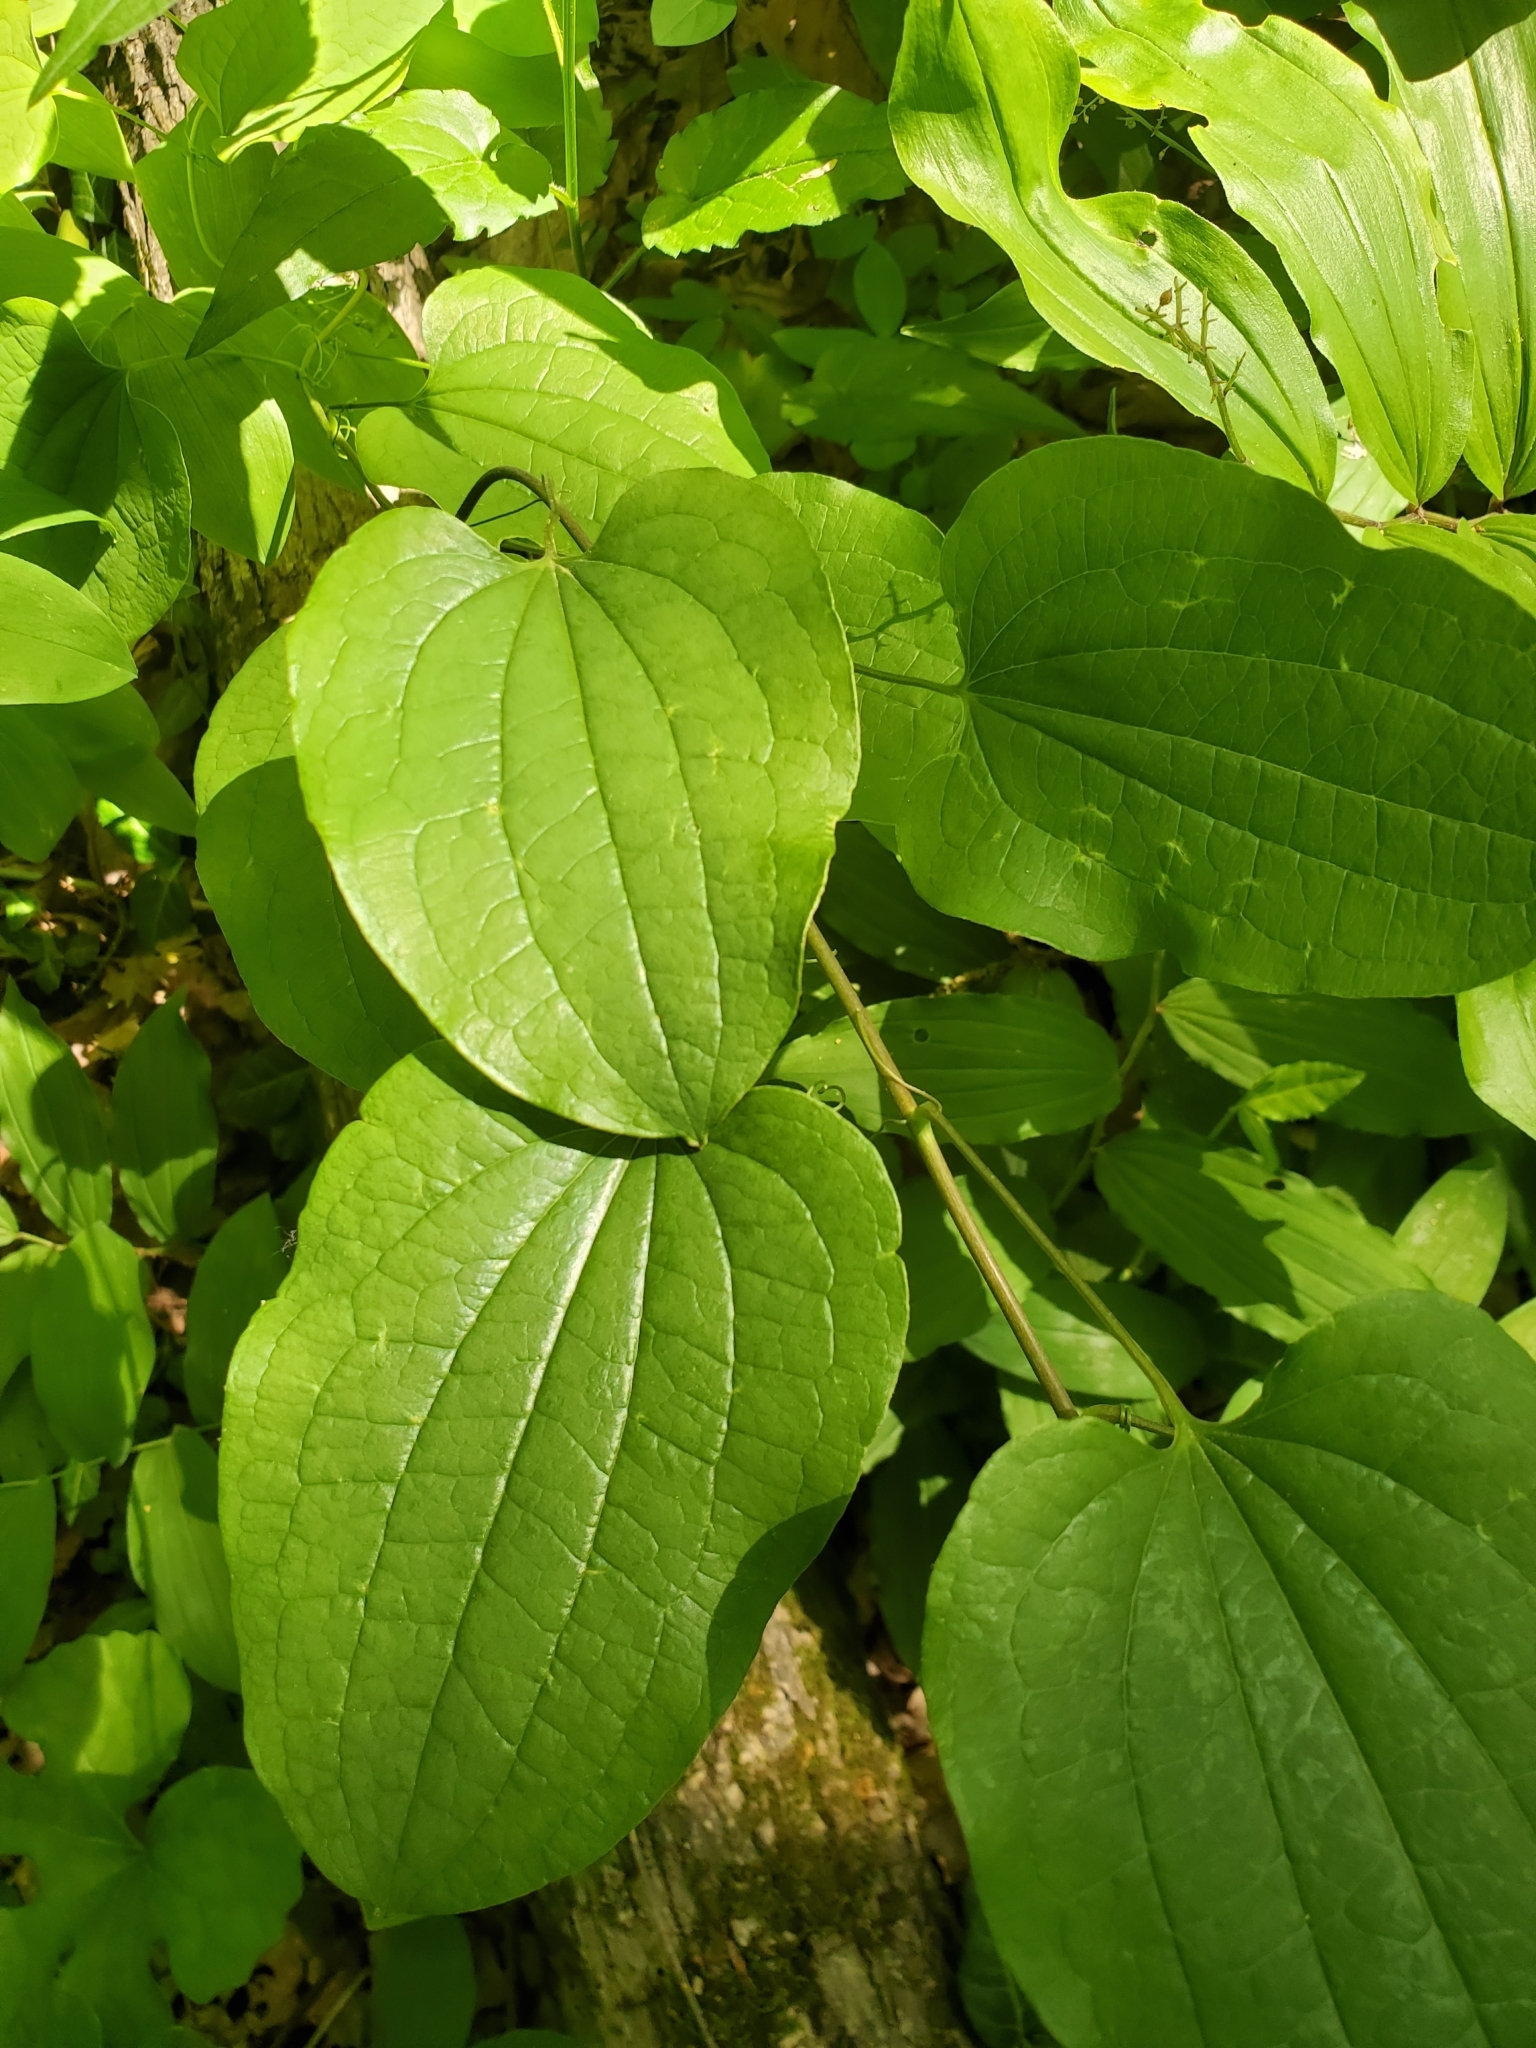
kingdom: Plantae
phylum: Tracheophyta
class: Liliopsida
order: Dioscoreales
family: Dioscoreaceae
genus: Dioscorea
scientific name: Dioscorea villosa
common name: Wild yam
